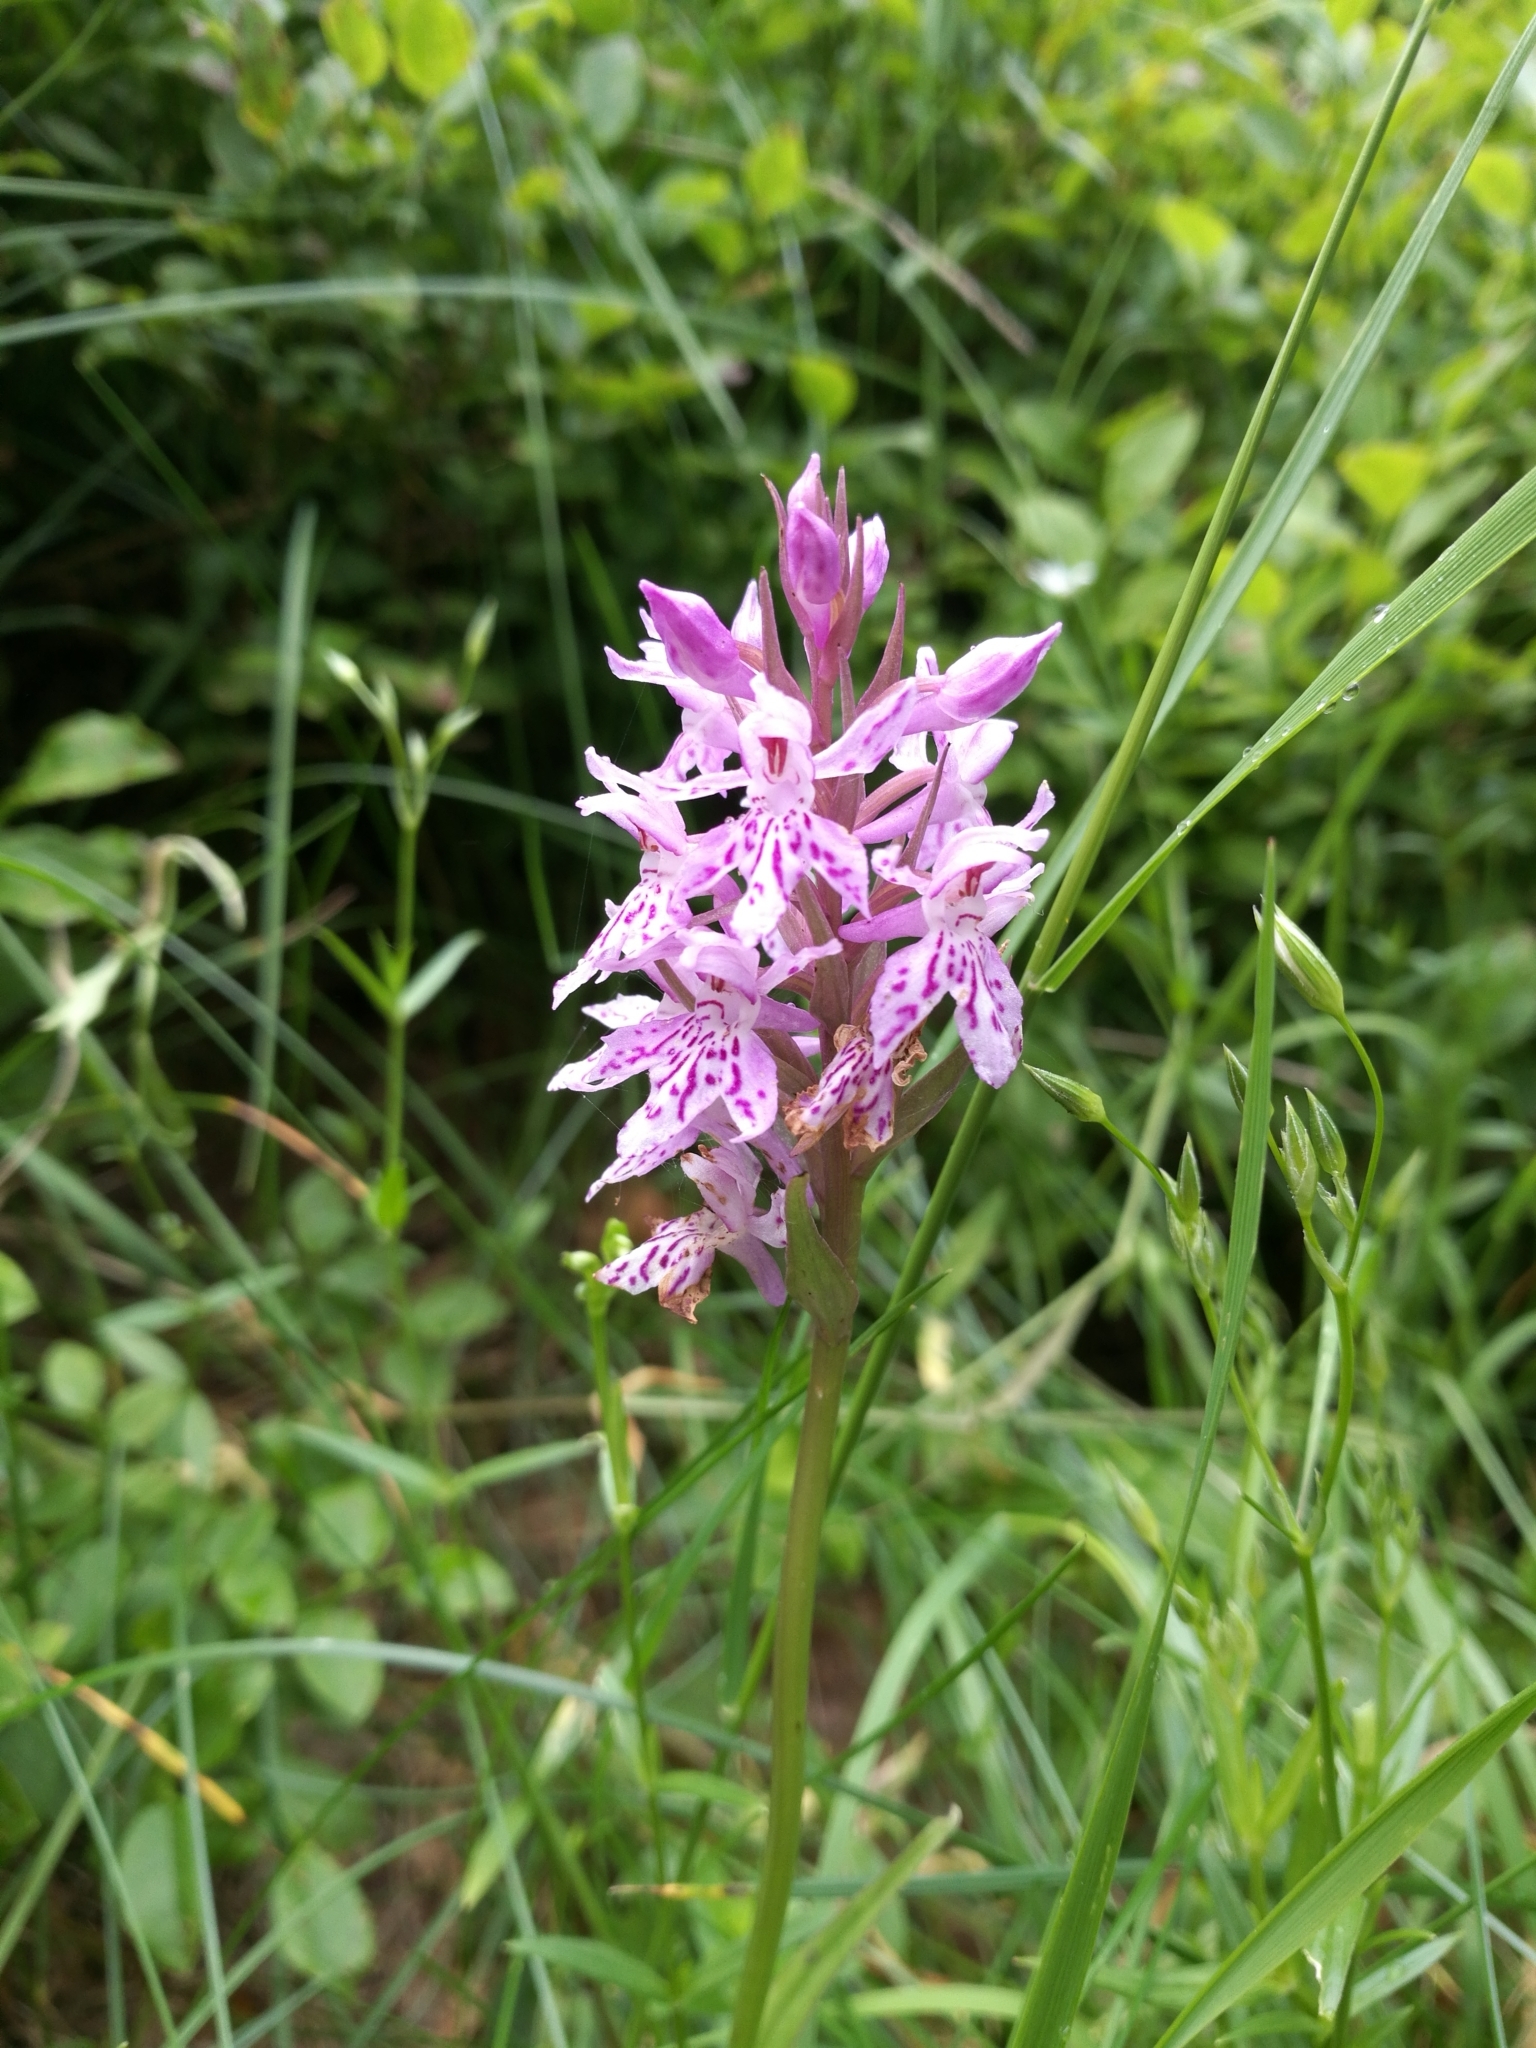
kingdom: Plantae
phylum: Tracheophyta
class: Liliopsida
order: Asparagales
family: Orchidaceae
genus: Dactylorhiza
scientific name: Dactylorhiza maculata
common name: Heath spotted-orchid
